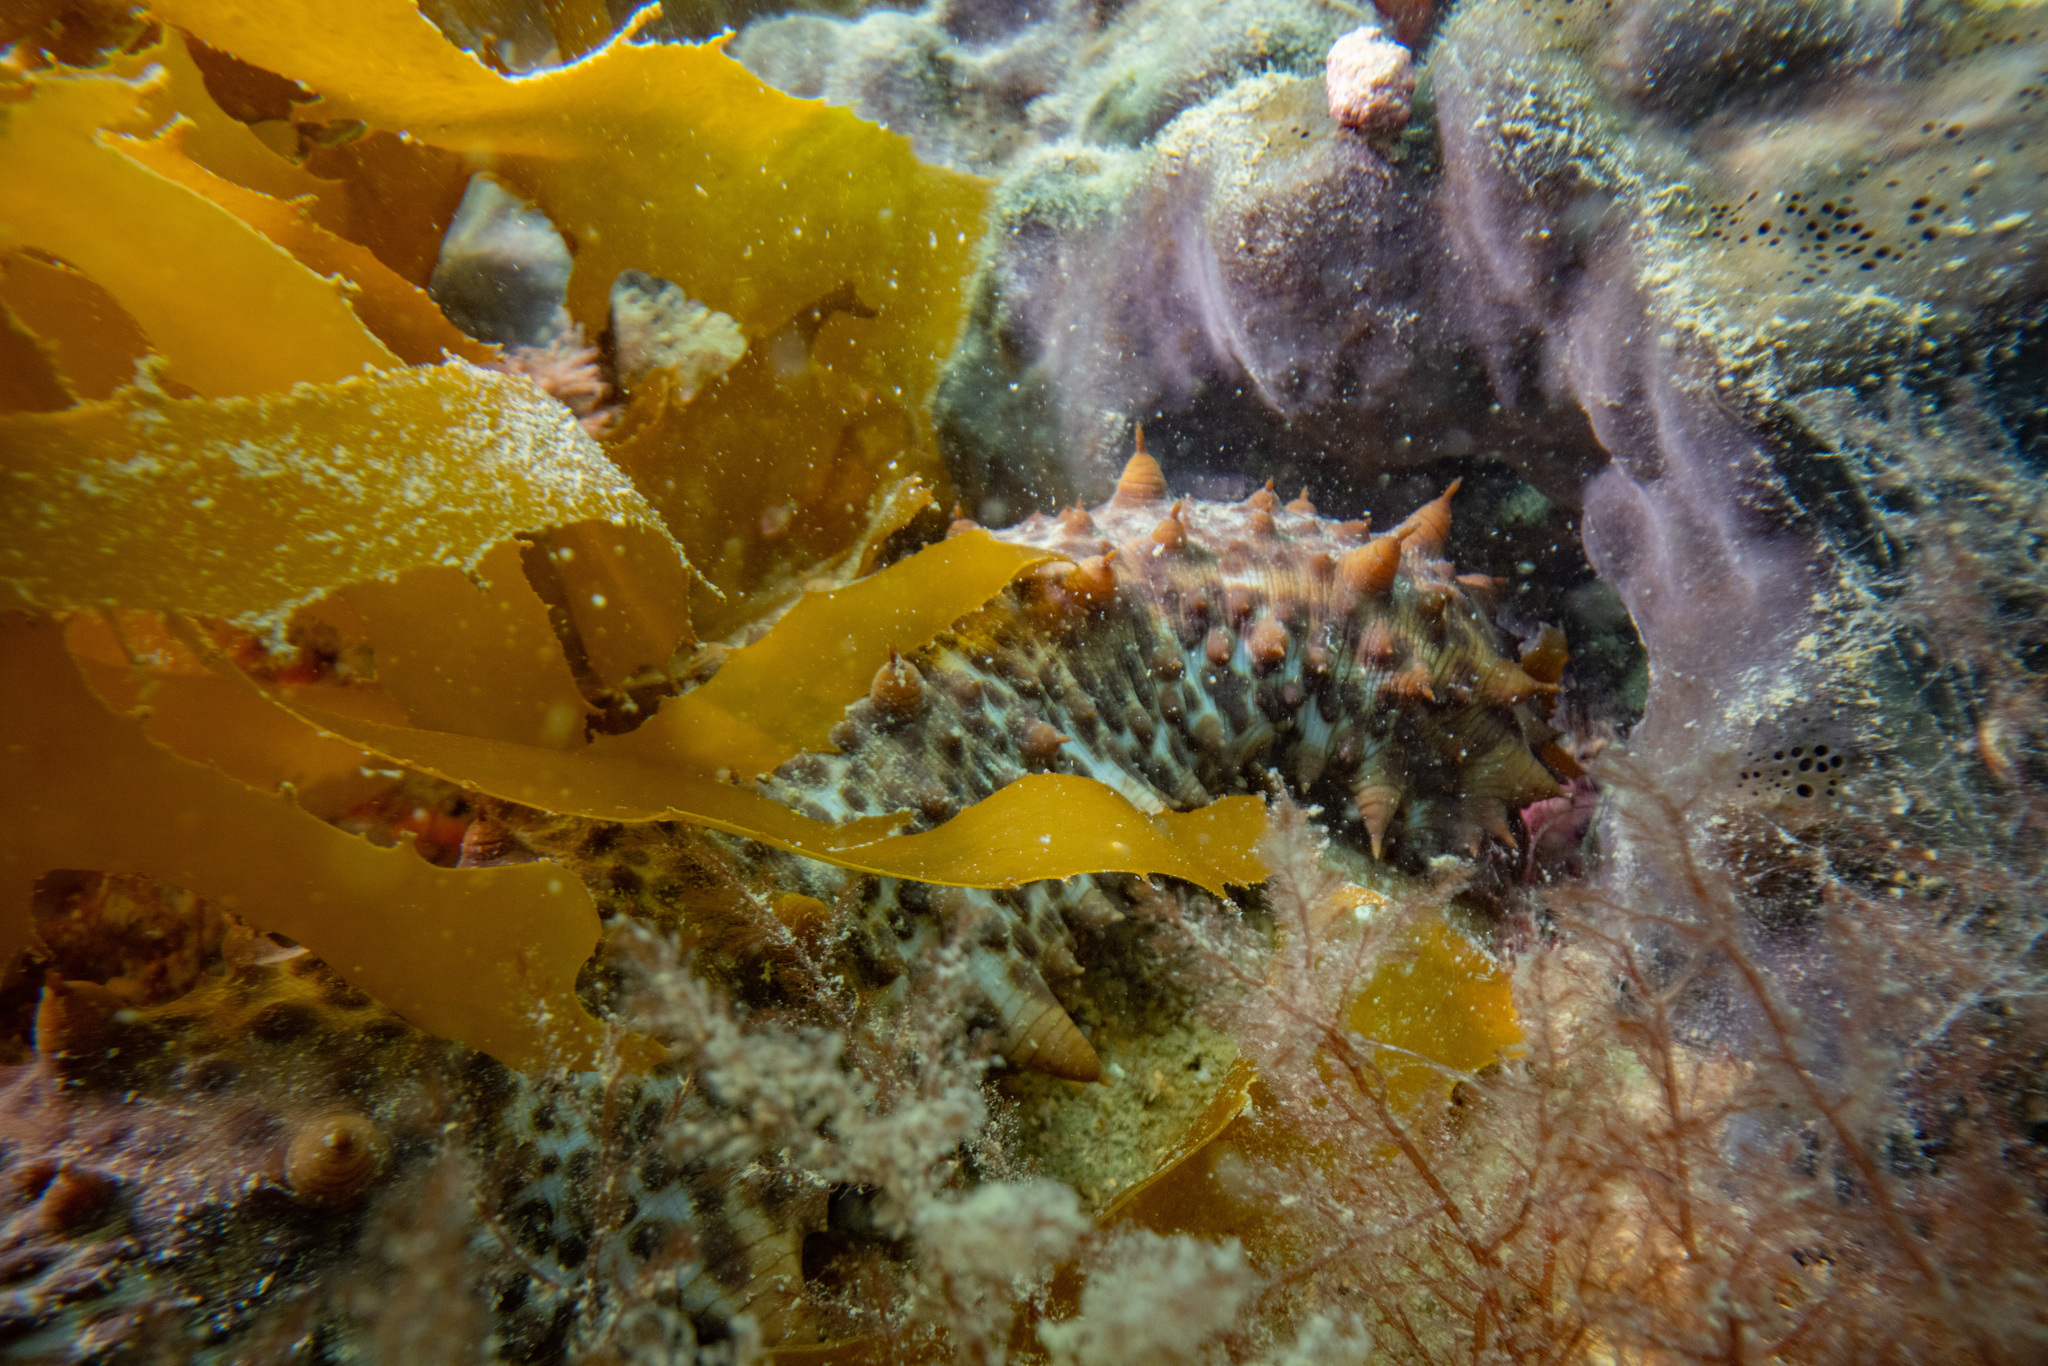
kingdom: Animalia
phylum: Echinodermata
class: Holothuroidea
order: Synallactida
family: Stichopodidae
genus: Australostichopus
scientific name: Australostichopus mollis
